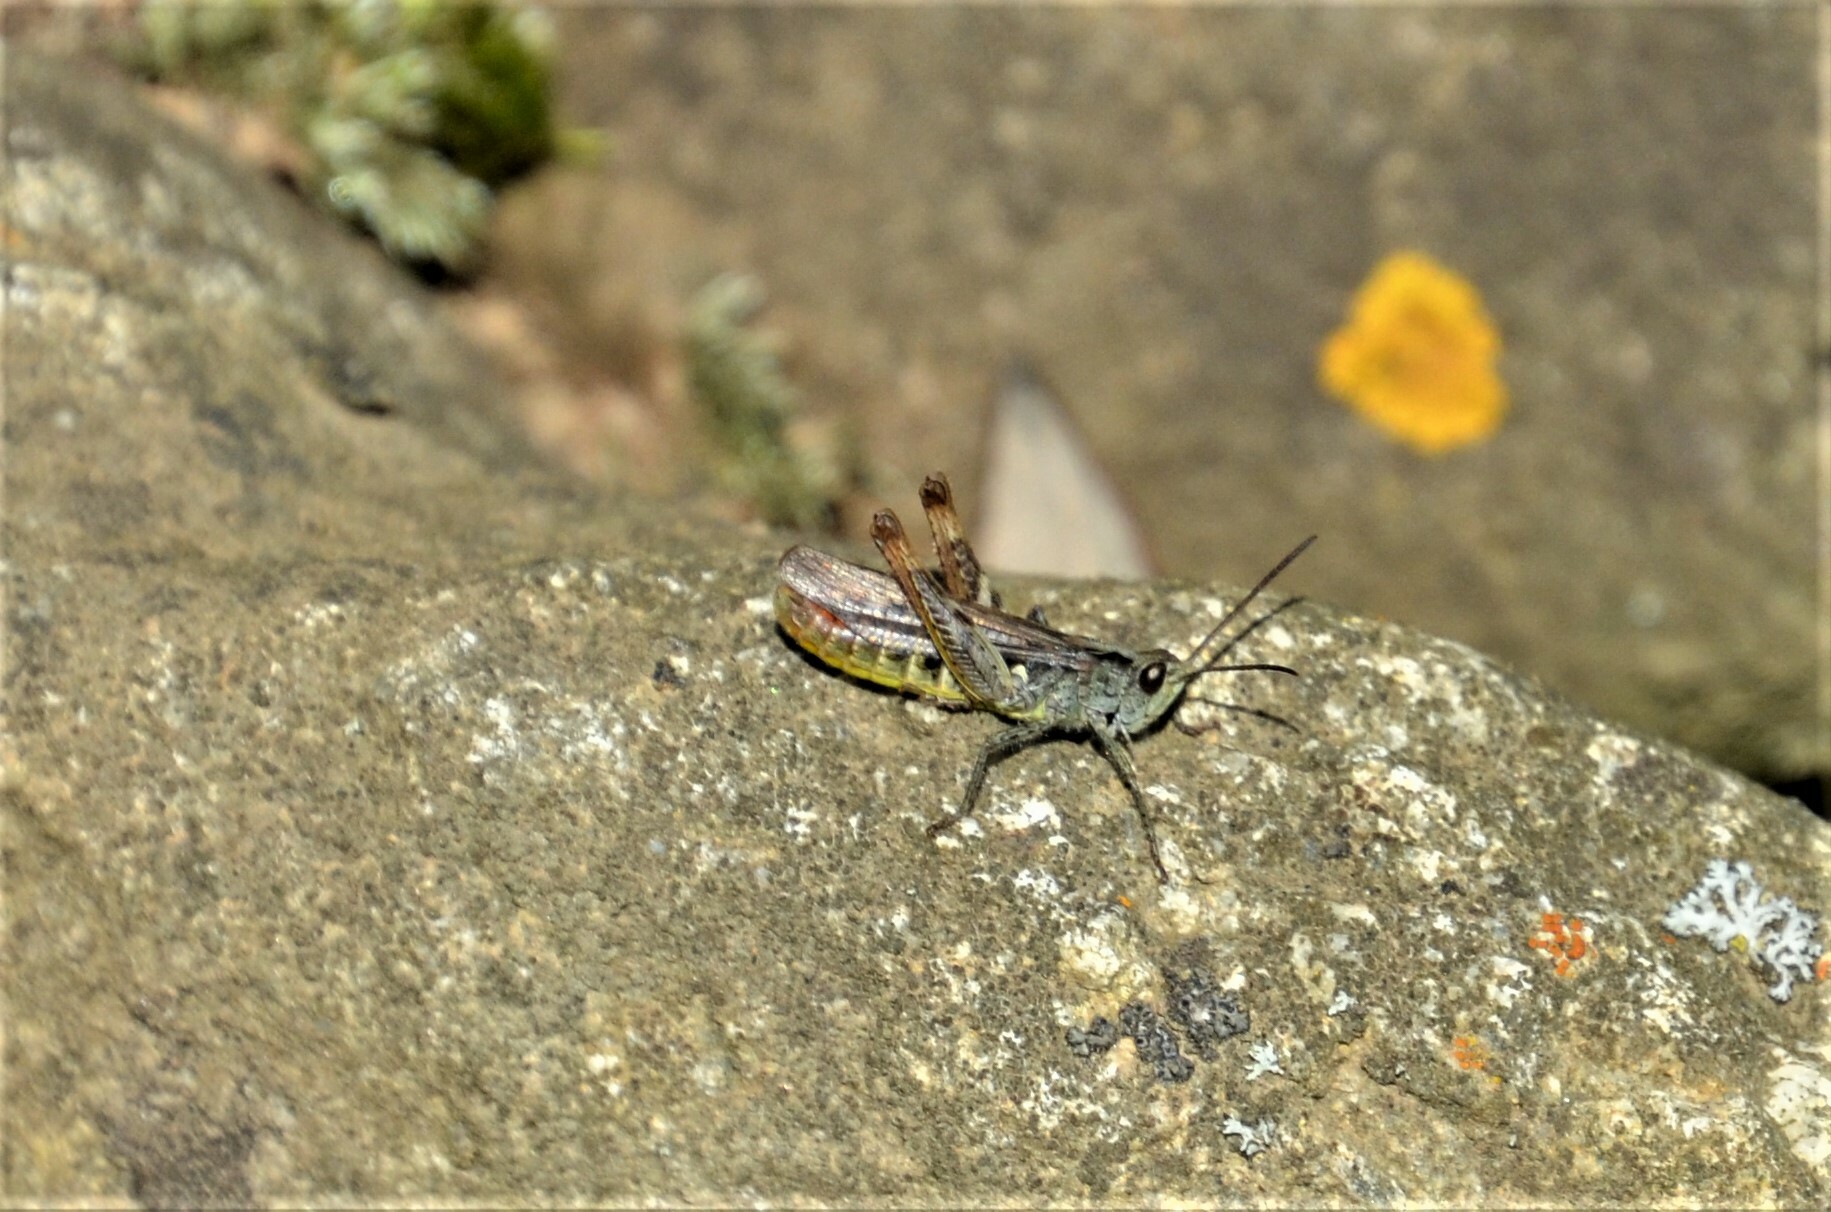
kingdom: Animalia
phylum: Arthropoda
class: Insecta
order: Orthoptera
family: Acrididae
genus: Chorthippus
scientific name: Chorthippus biguttulus
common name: Bow-winged grasshopper
